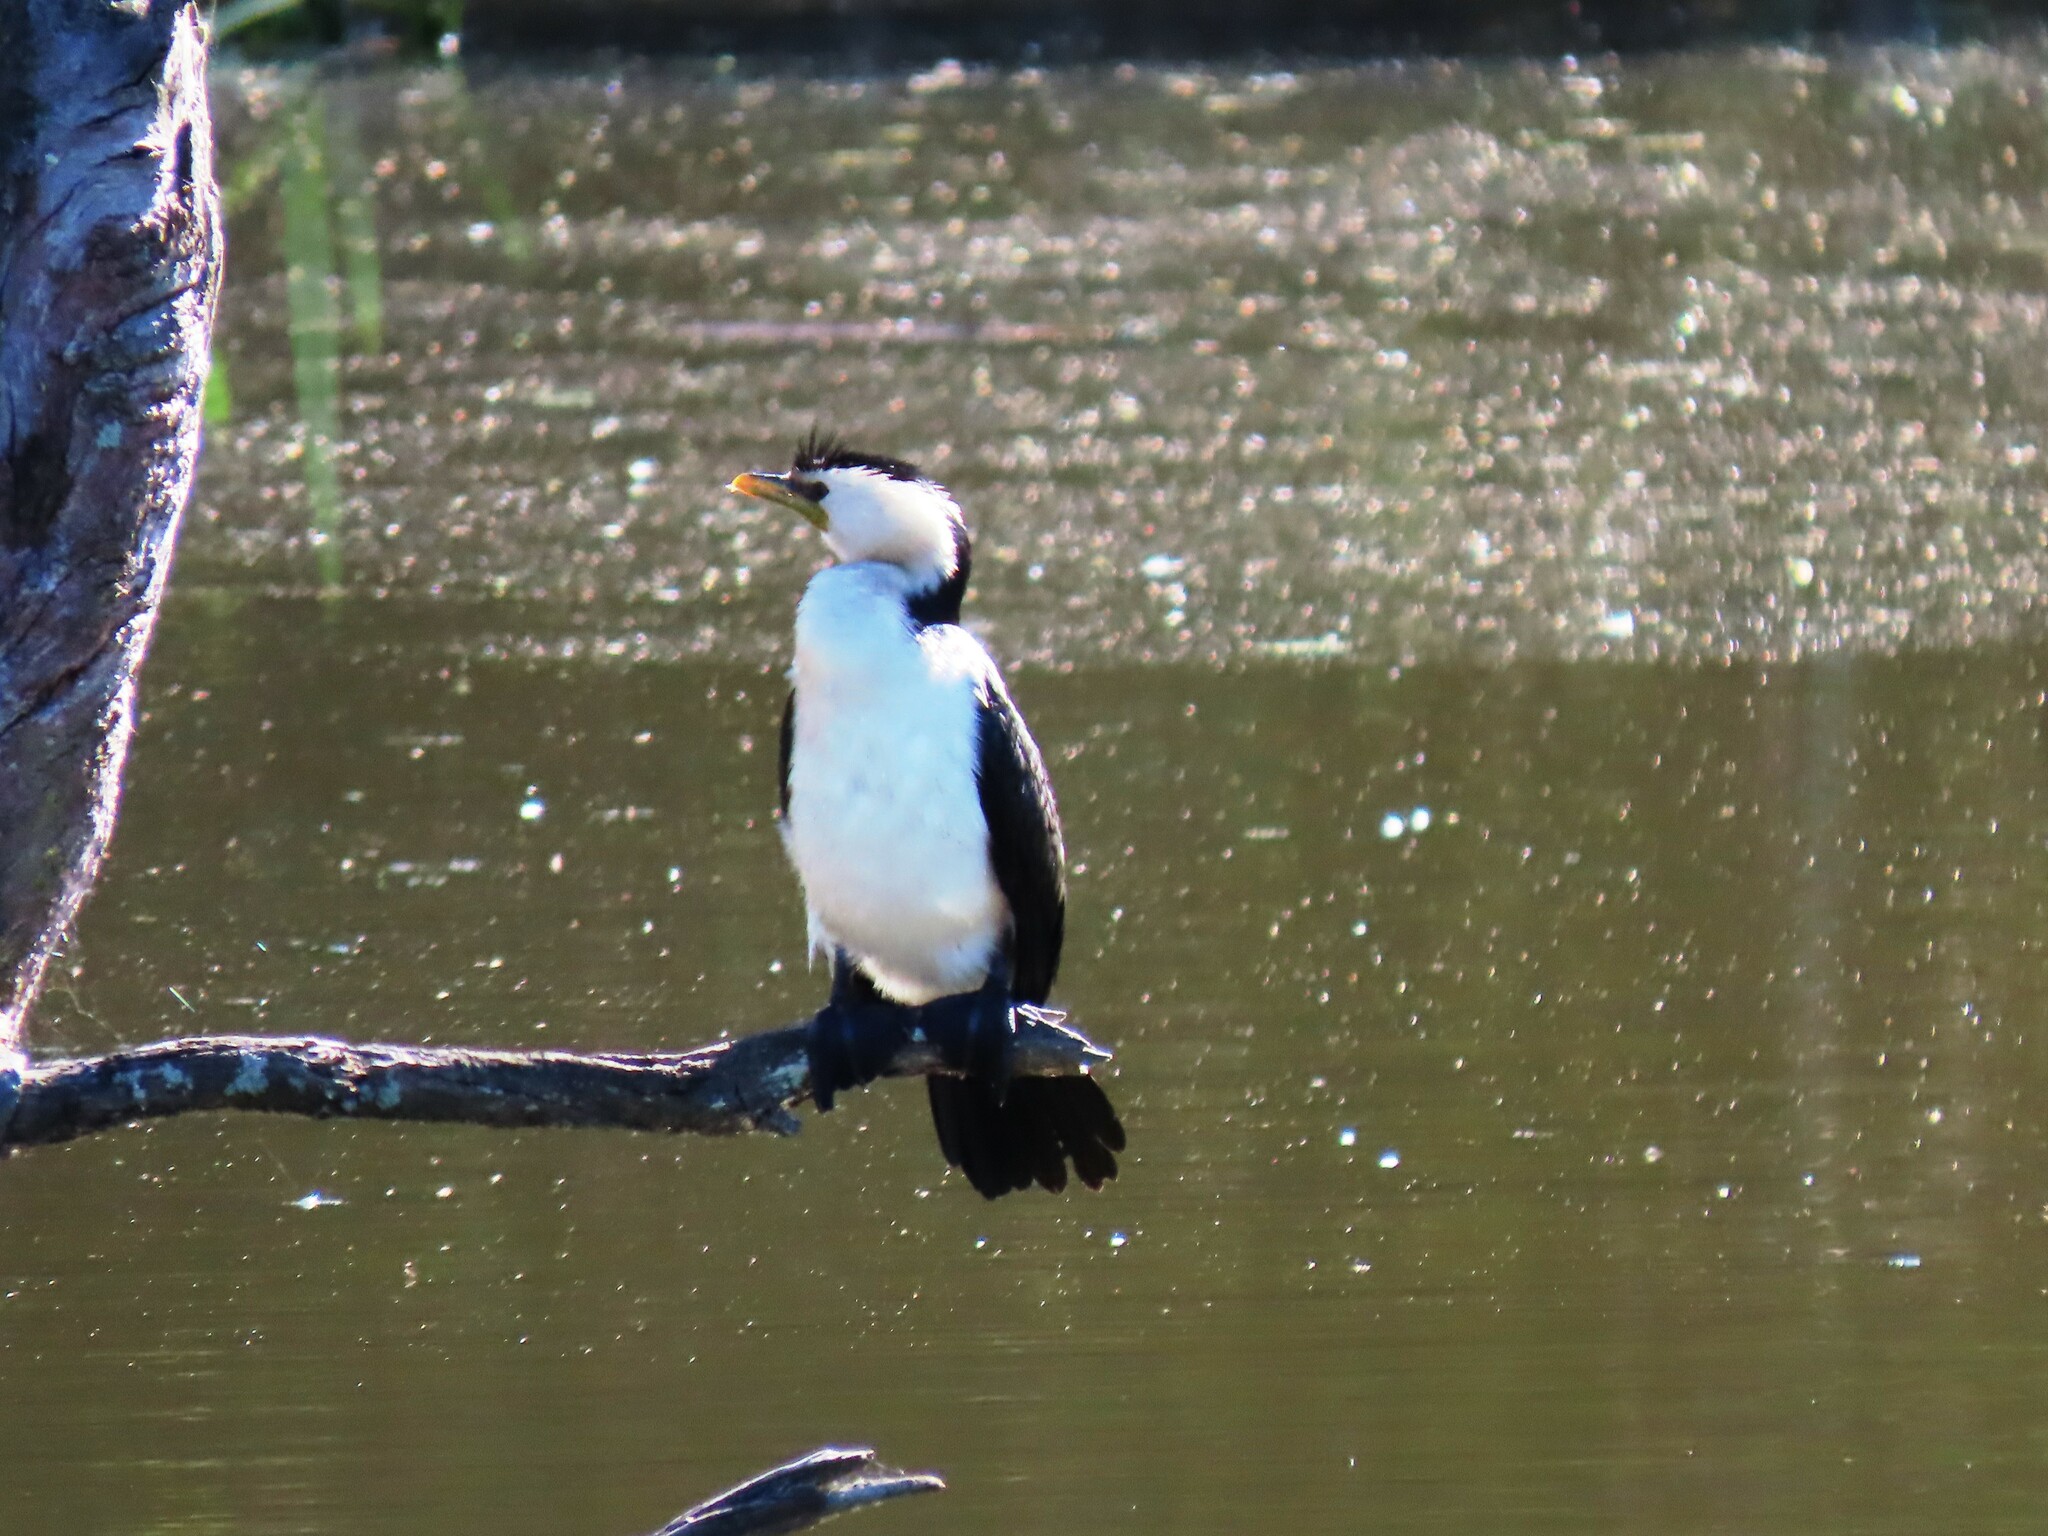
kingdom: Animalia
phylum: Chordata
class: Aves
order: Suliformes
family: Phalacrocoracidae
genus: Microcarbo
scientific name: Microcarbo melanoleucos
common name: Little pied cormorant
